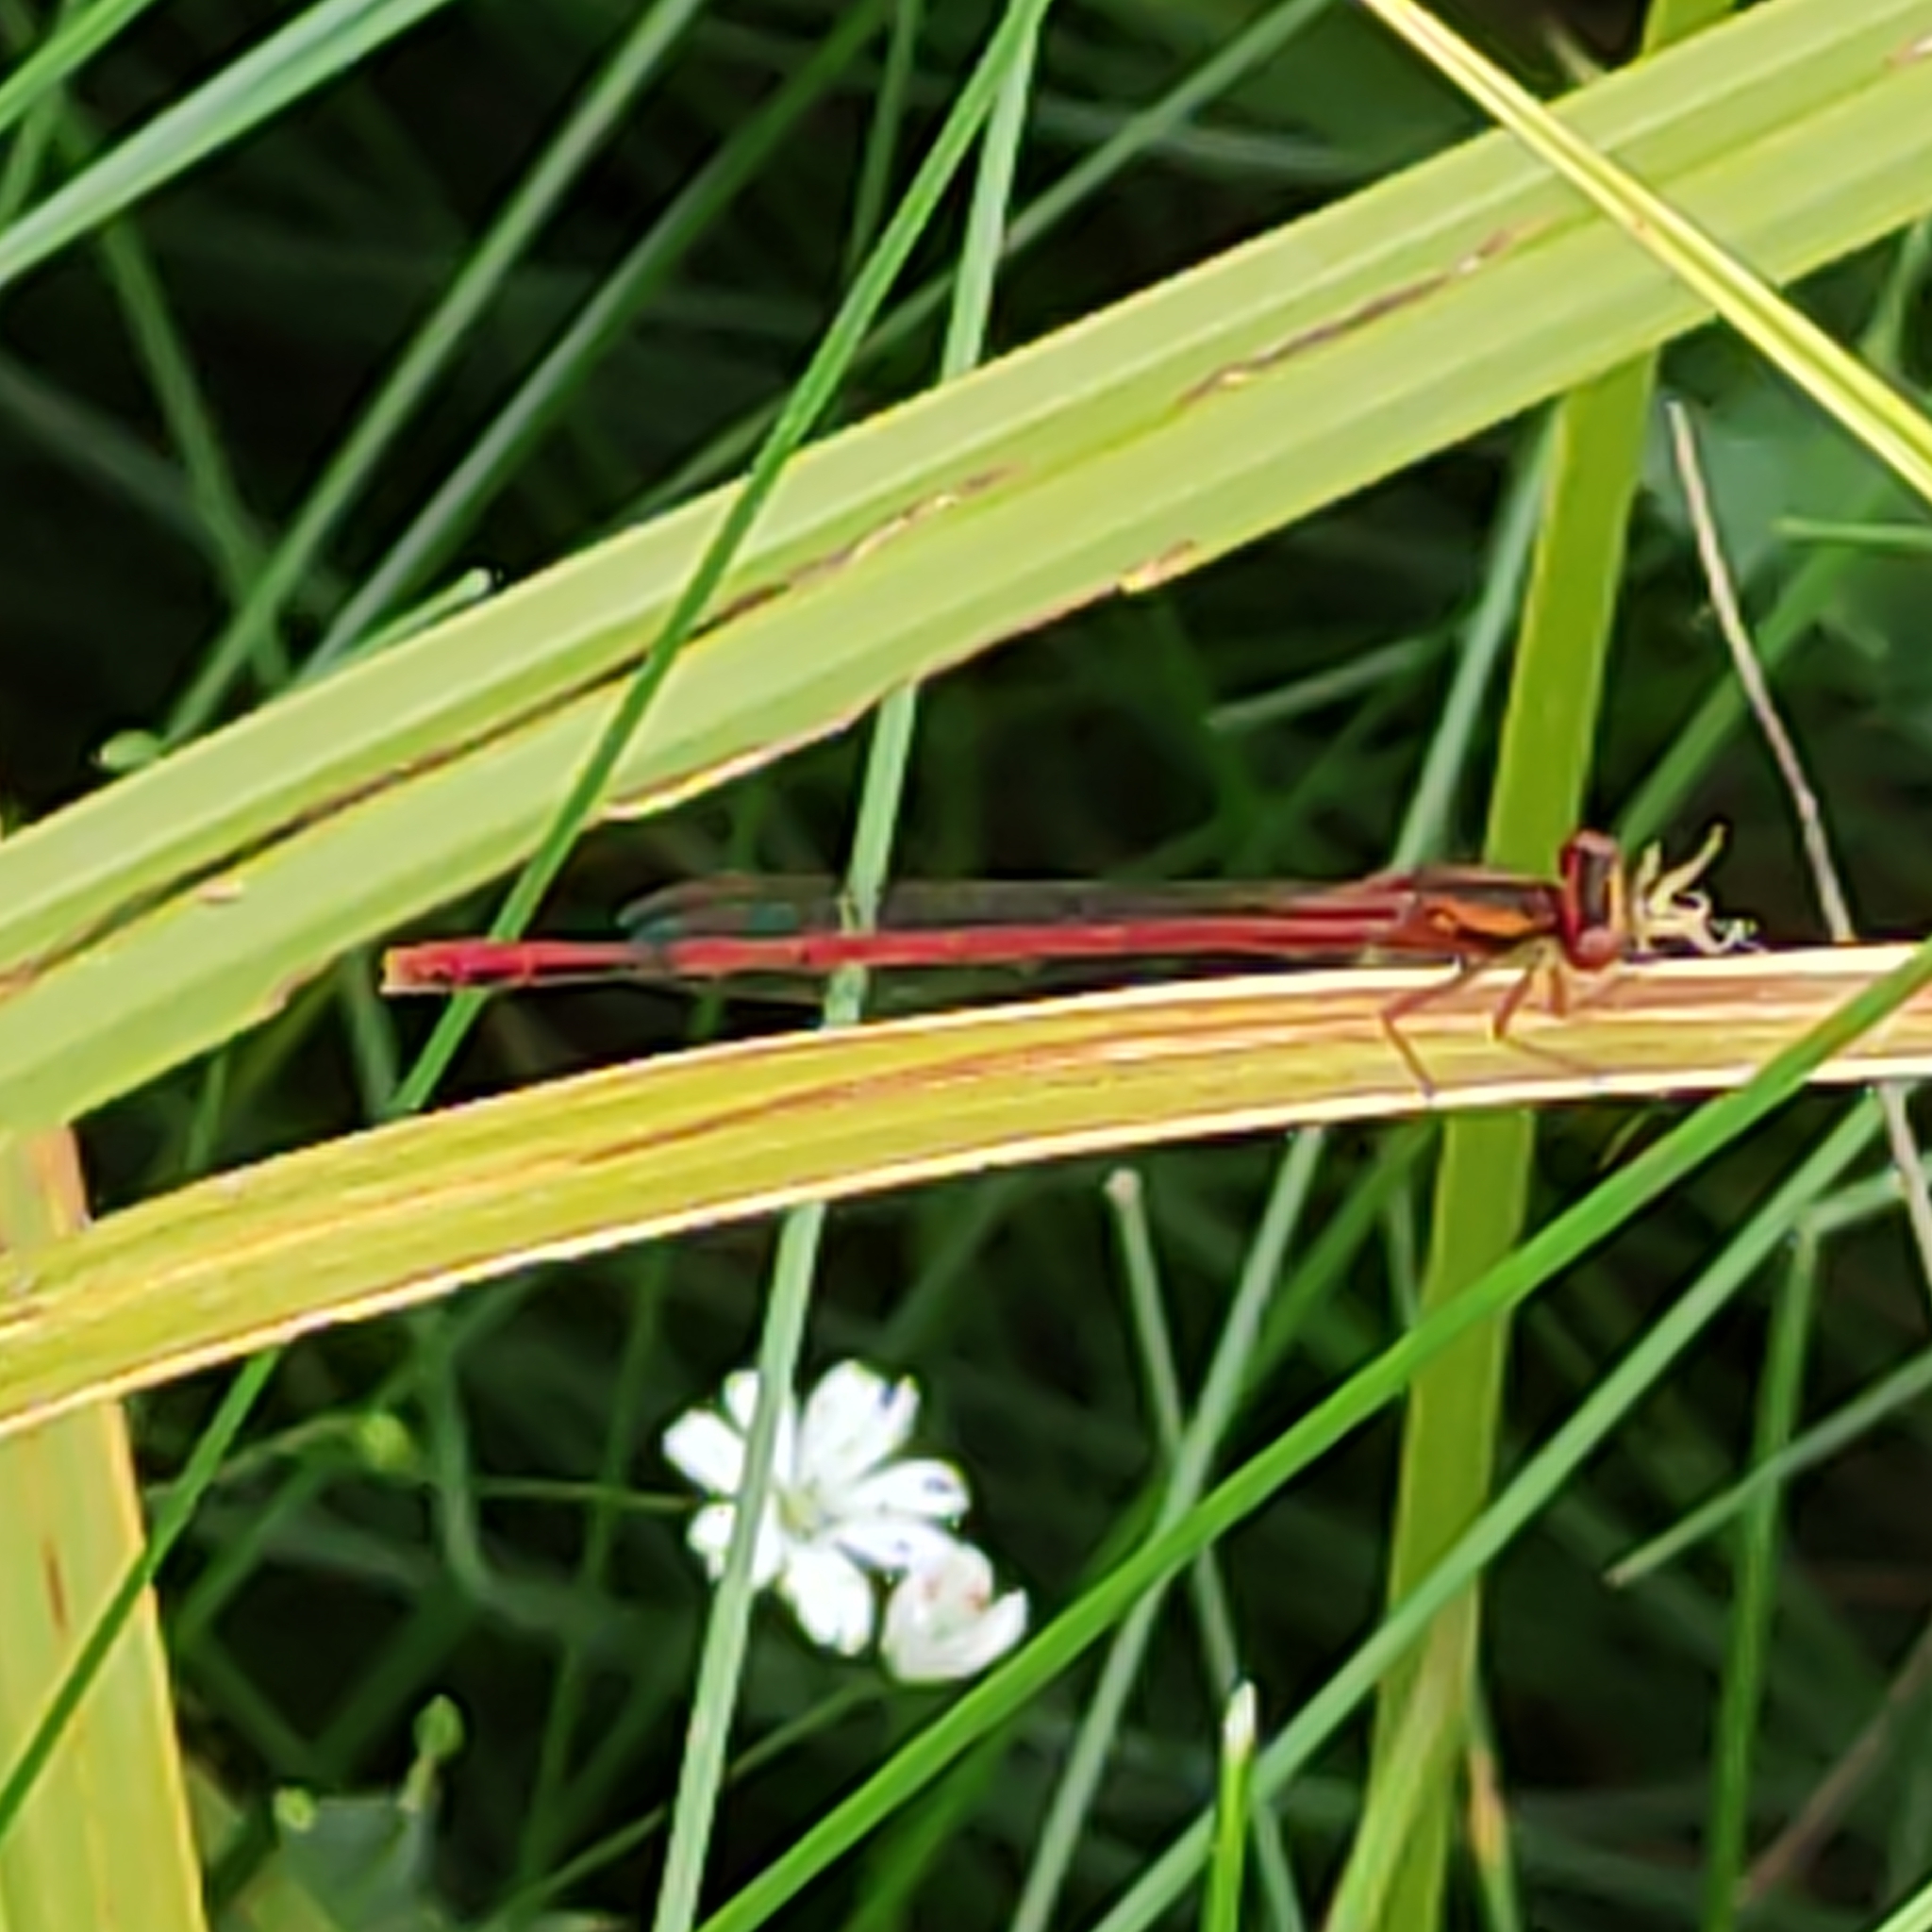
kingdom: Animalia
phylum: Arthropoda
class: Insecta
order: Odonata
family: Coenagrionidae
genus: Xanthocnemis
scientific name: Xanthocnemis zealandica
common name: Common redcoat damselfly
